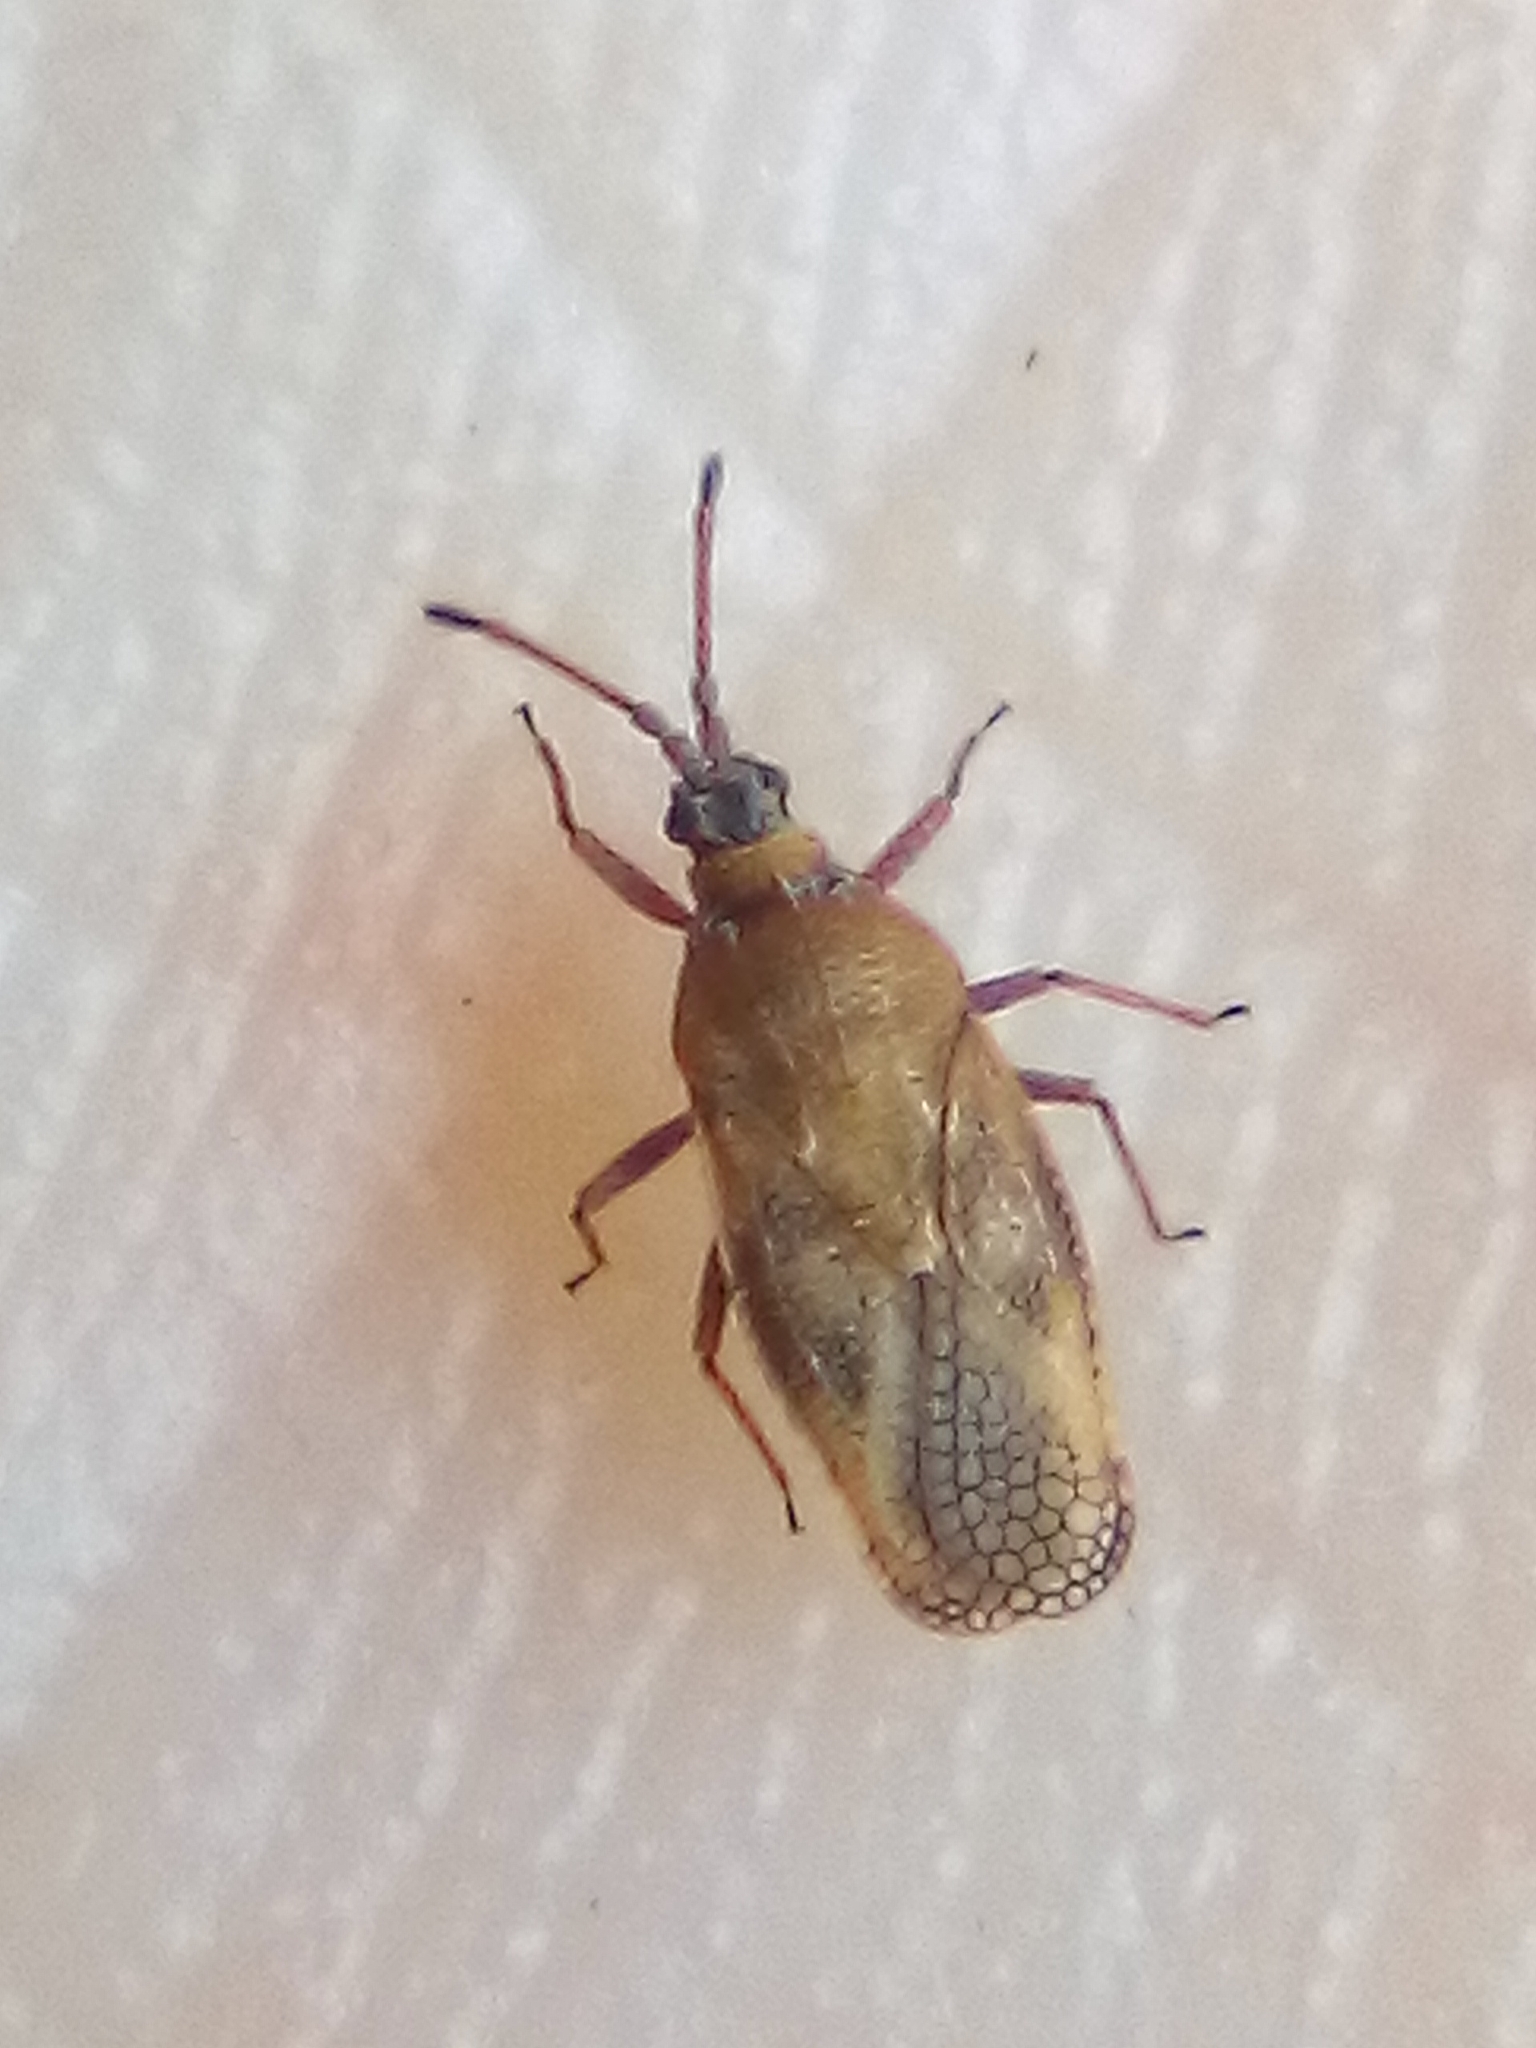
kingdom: Animalia
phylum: Arthropoda
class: Insecta
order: Hemiptera
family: Tingidae
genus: Leptoypha
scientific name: Leptoypha hospita
